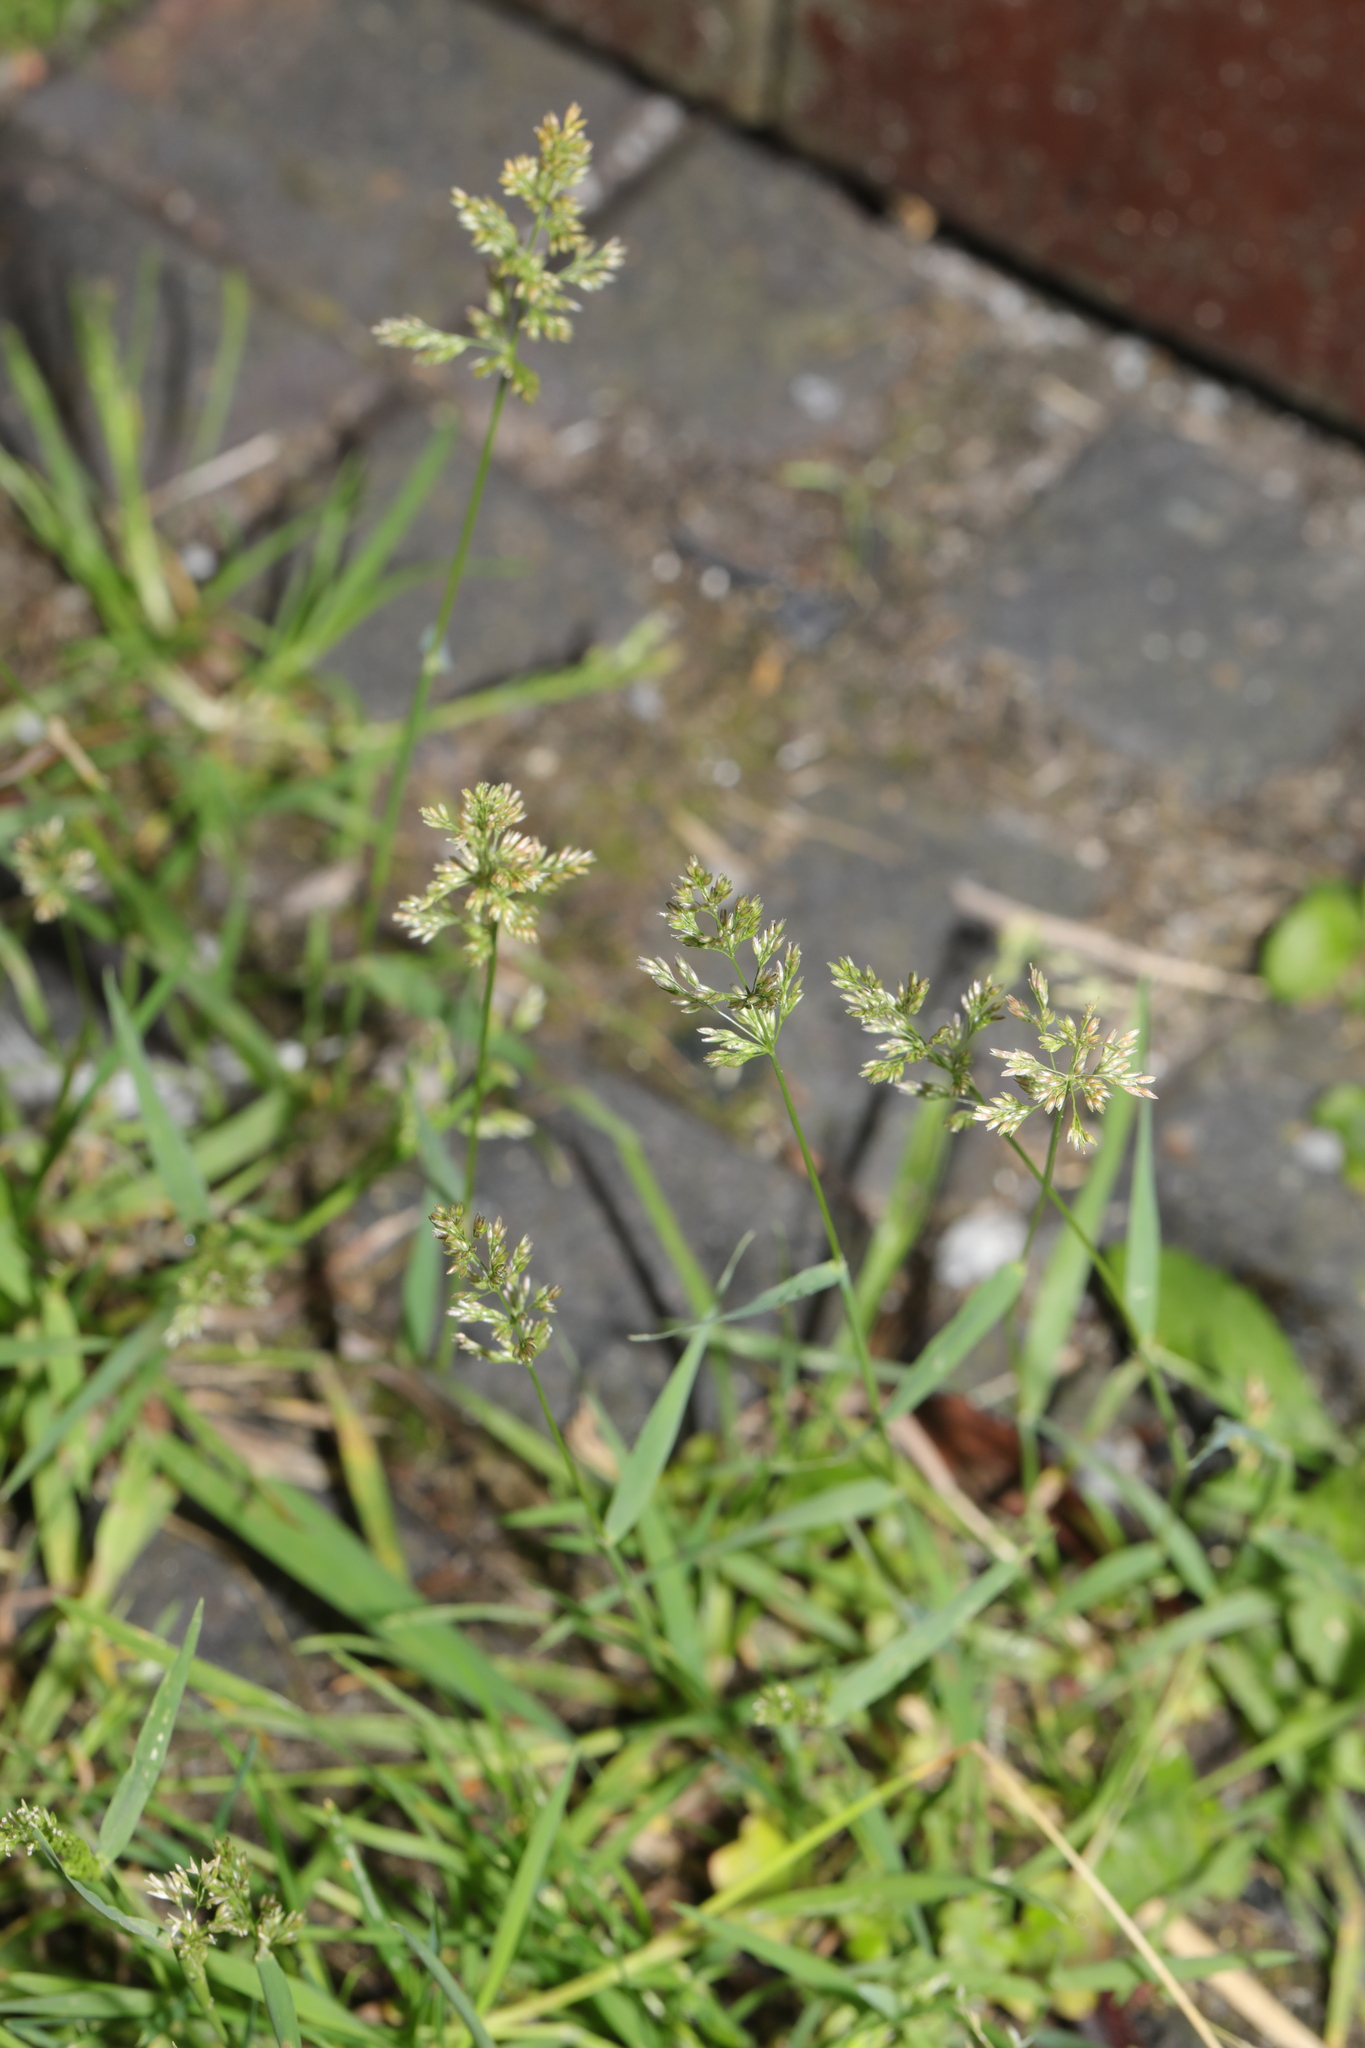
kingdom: Plantae
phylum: Tracheophyta
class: Liliopsida
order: Poales
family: Poaceae
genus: Polypogon
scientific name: Polypogon viridis
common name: Water bent
